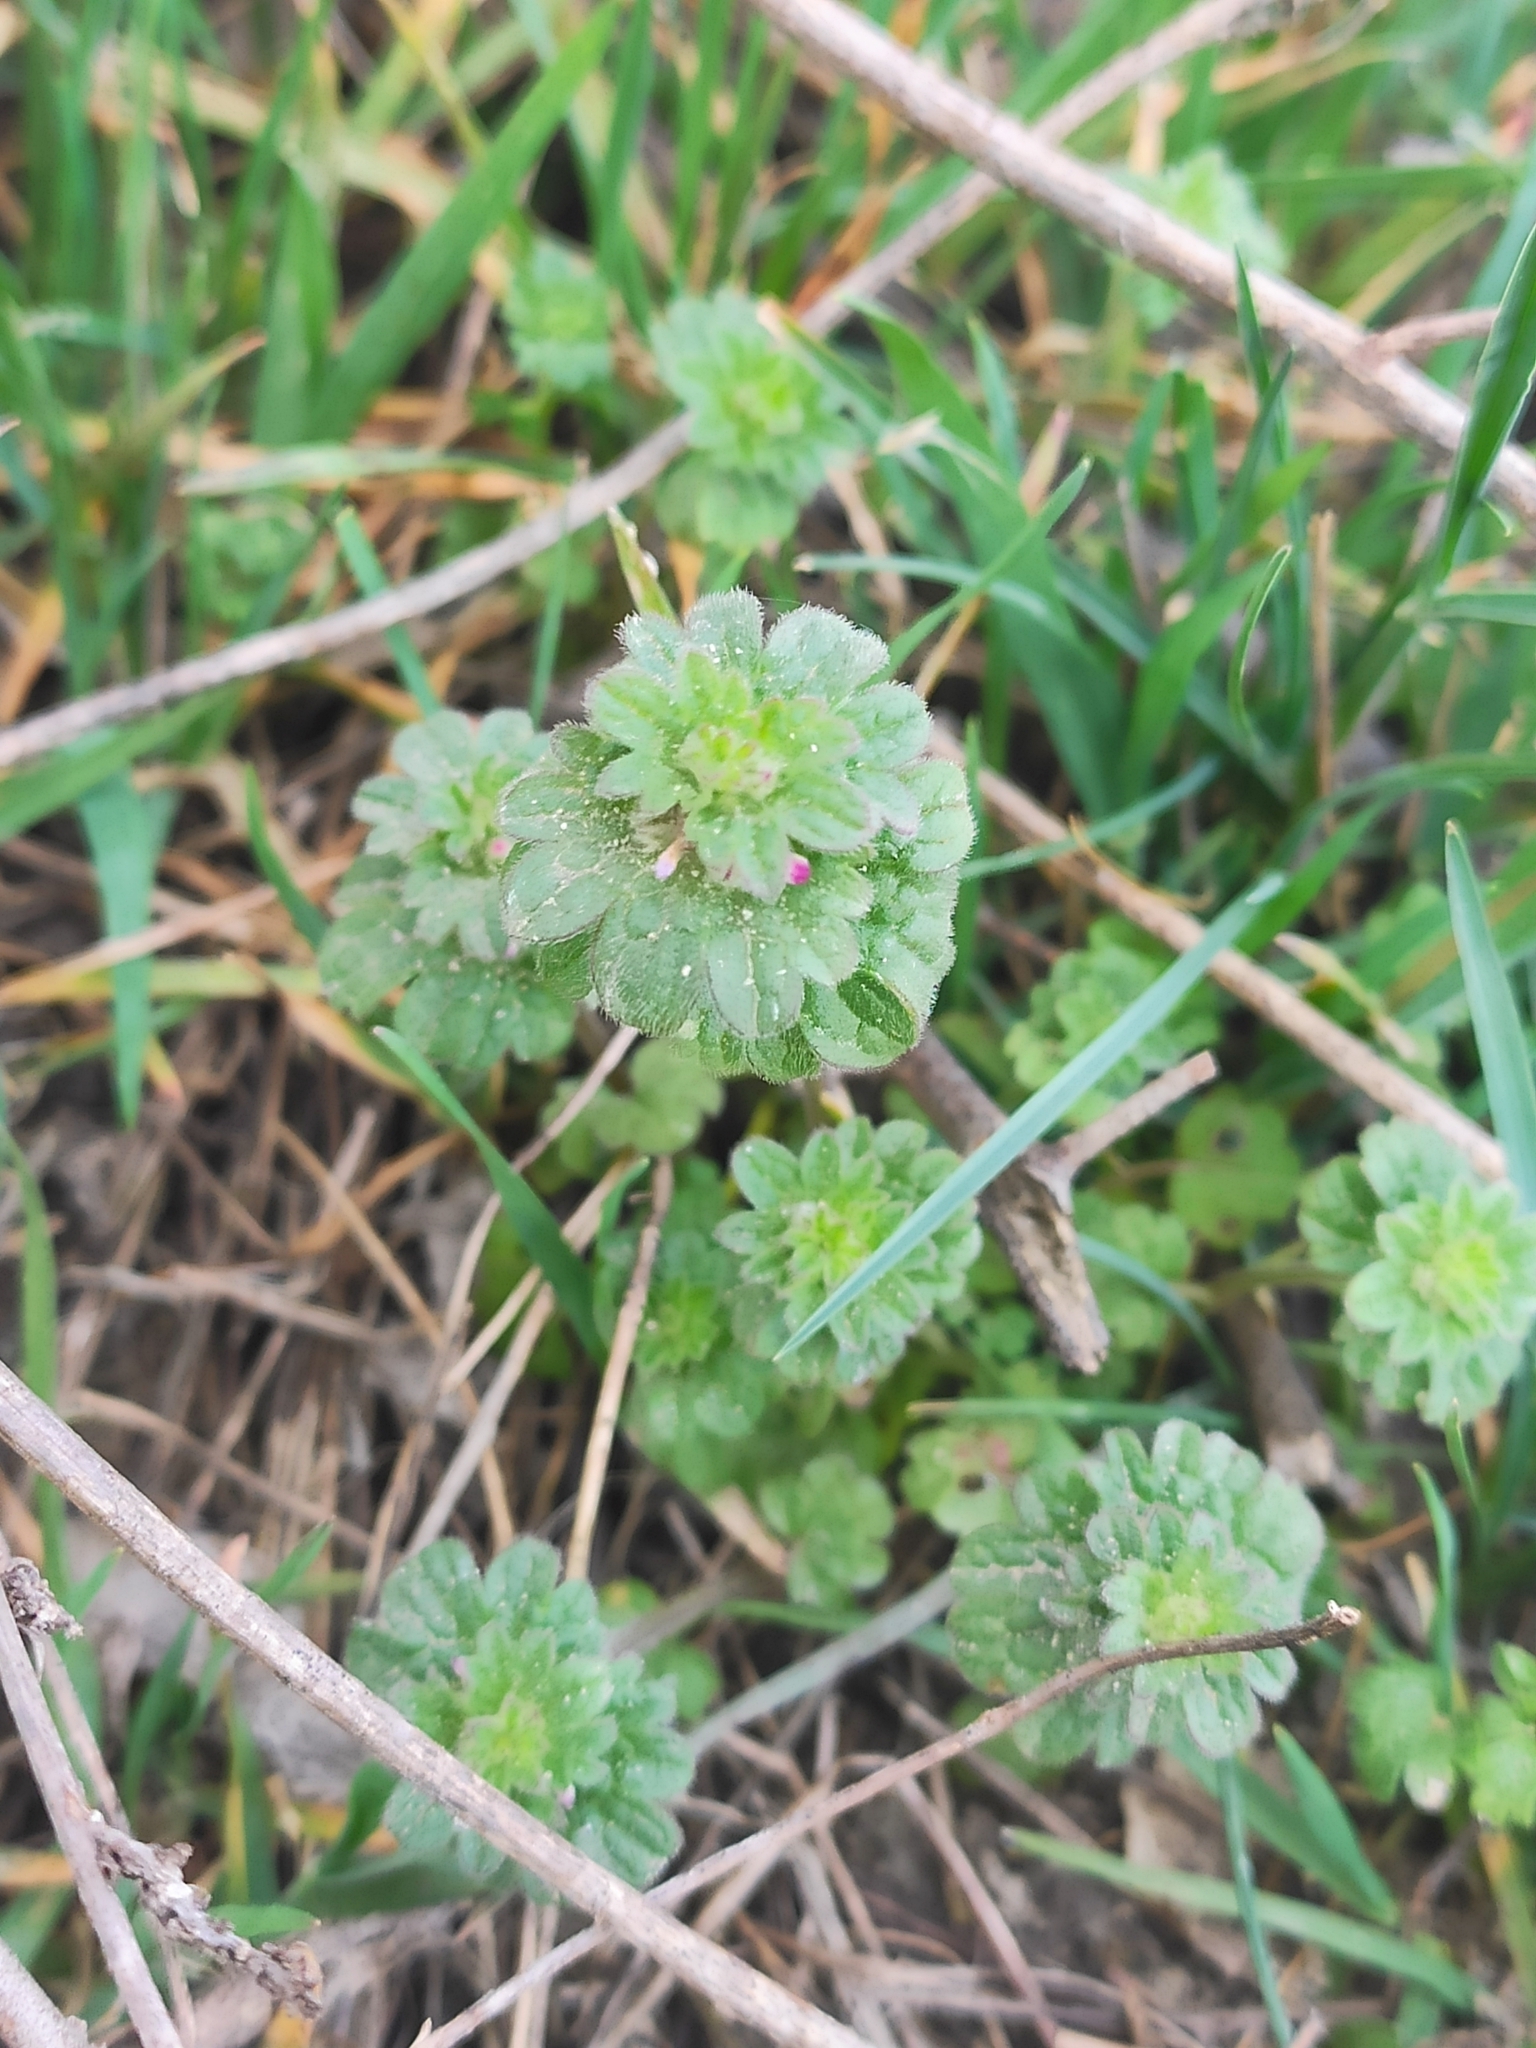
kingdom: Plantae
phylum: Tracheophyta
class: Magnoliopsida
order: Lamiales
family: Lamiaceae
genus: Lamium
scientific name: Lamium amplexicaule
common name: Henbit dead-nettle
